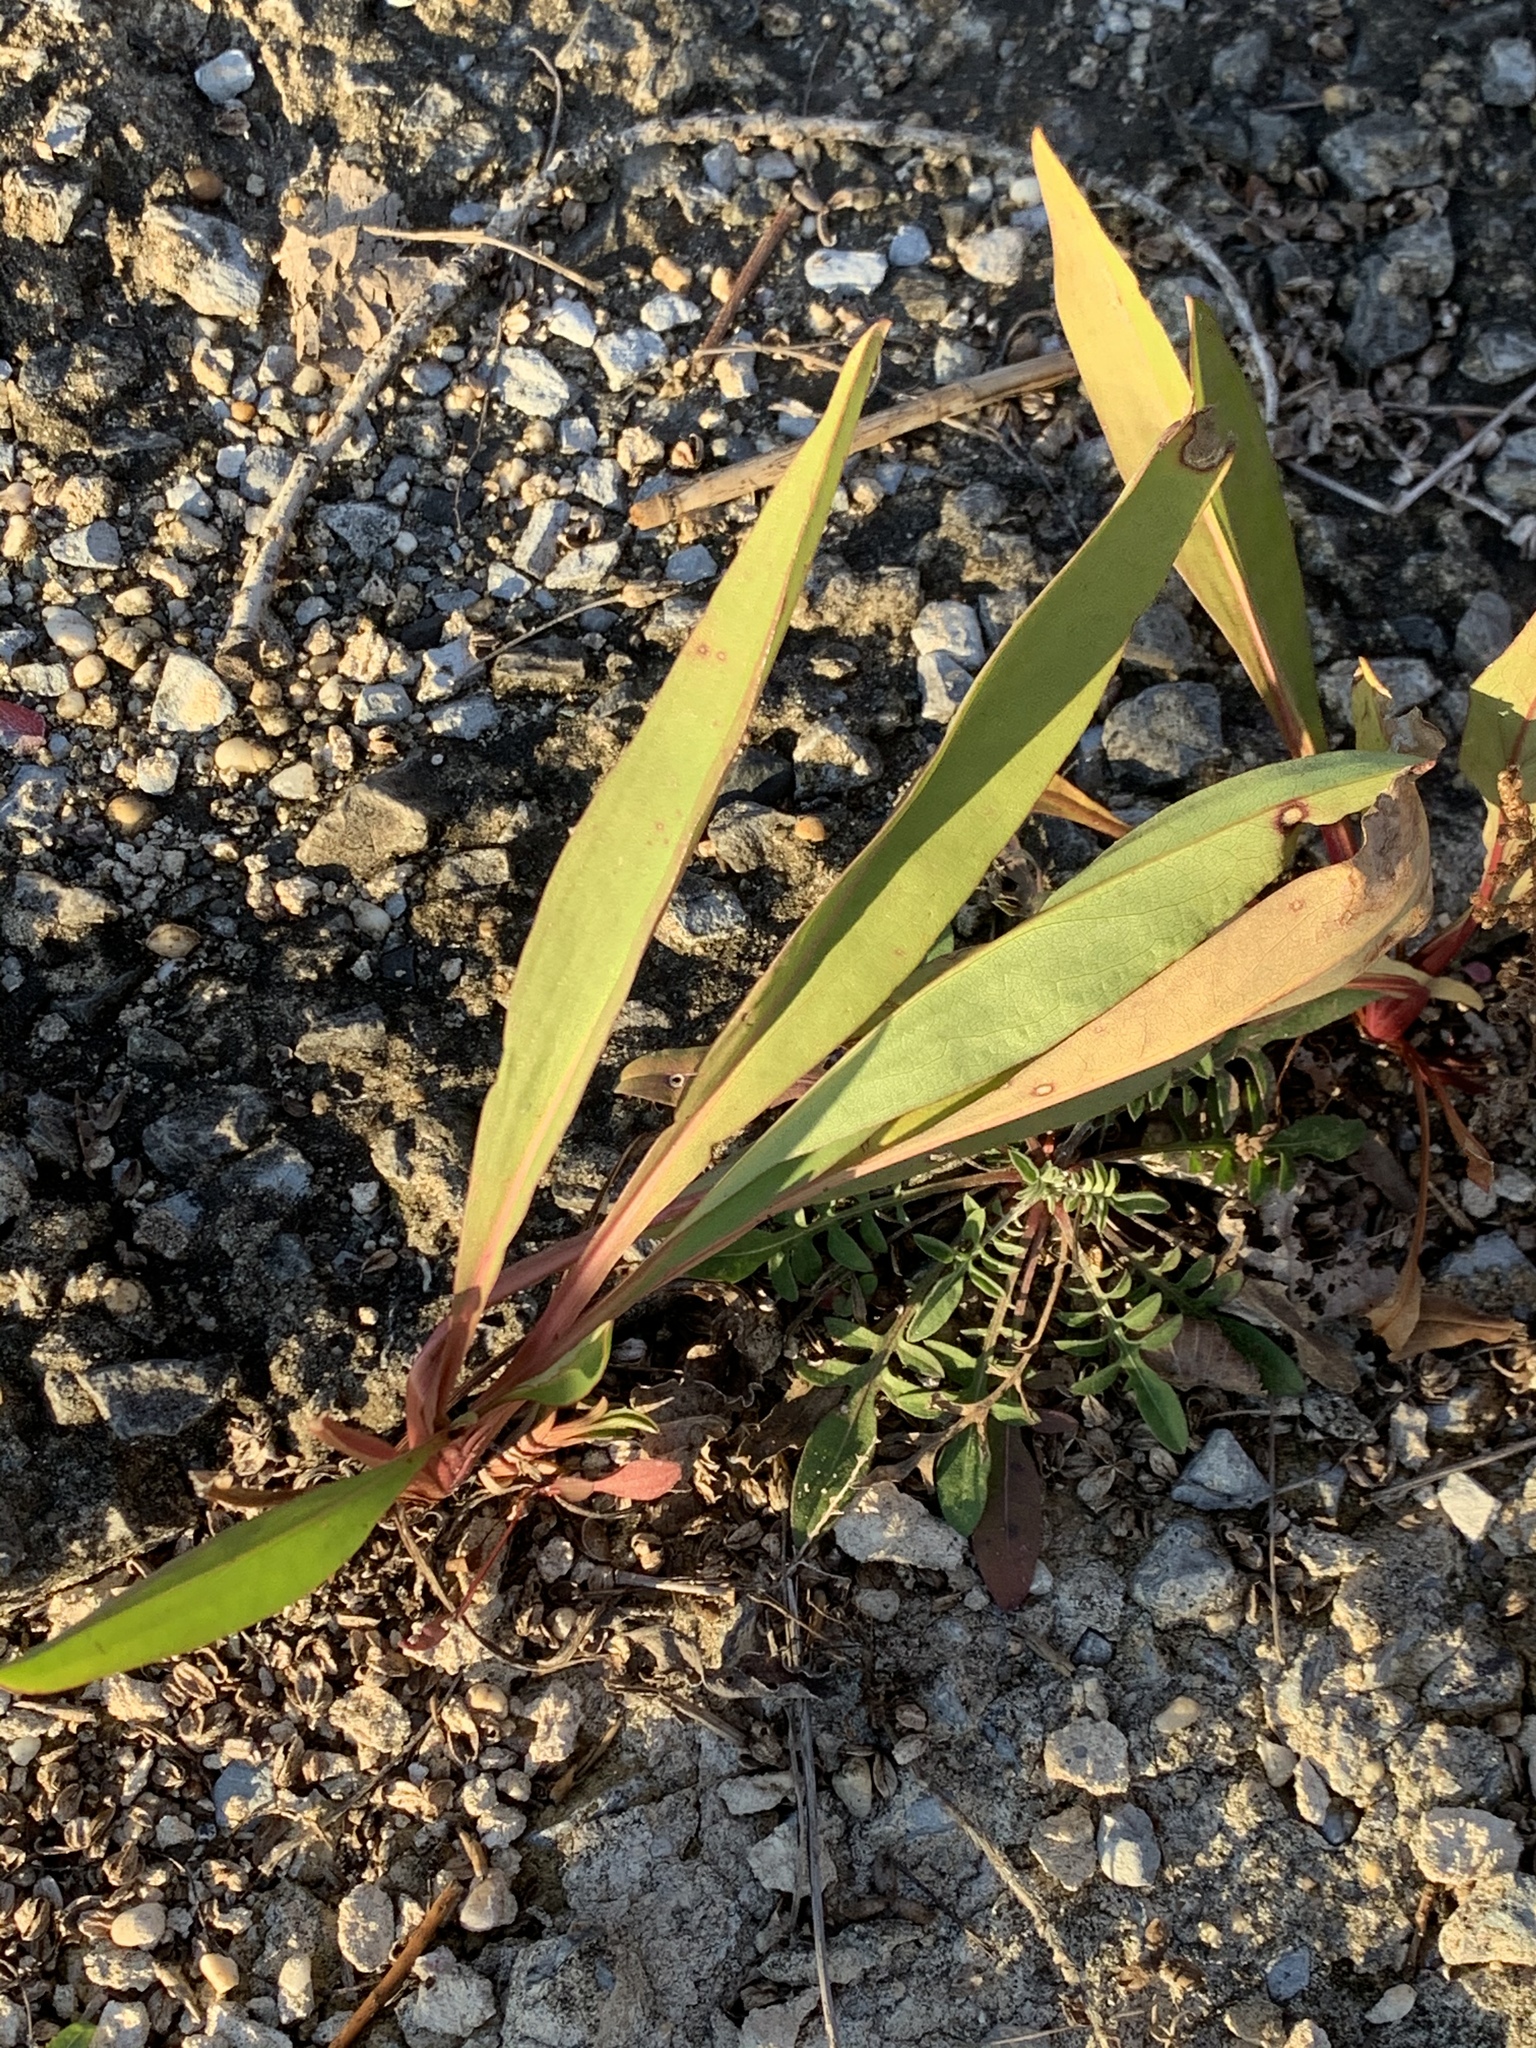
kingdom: Plantae
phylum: Tracheophyta
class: Magnoliopsida
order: Asterales
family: Asteraceae
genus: Solidago
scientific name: Solidago sempervirens
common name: Salt-marsh goldenrod
